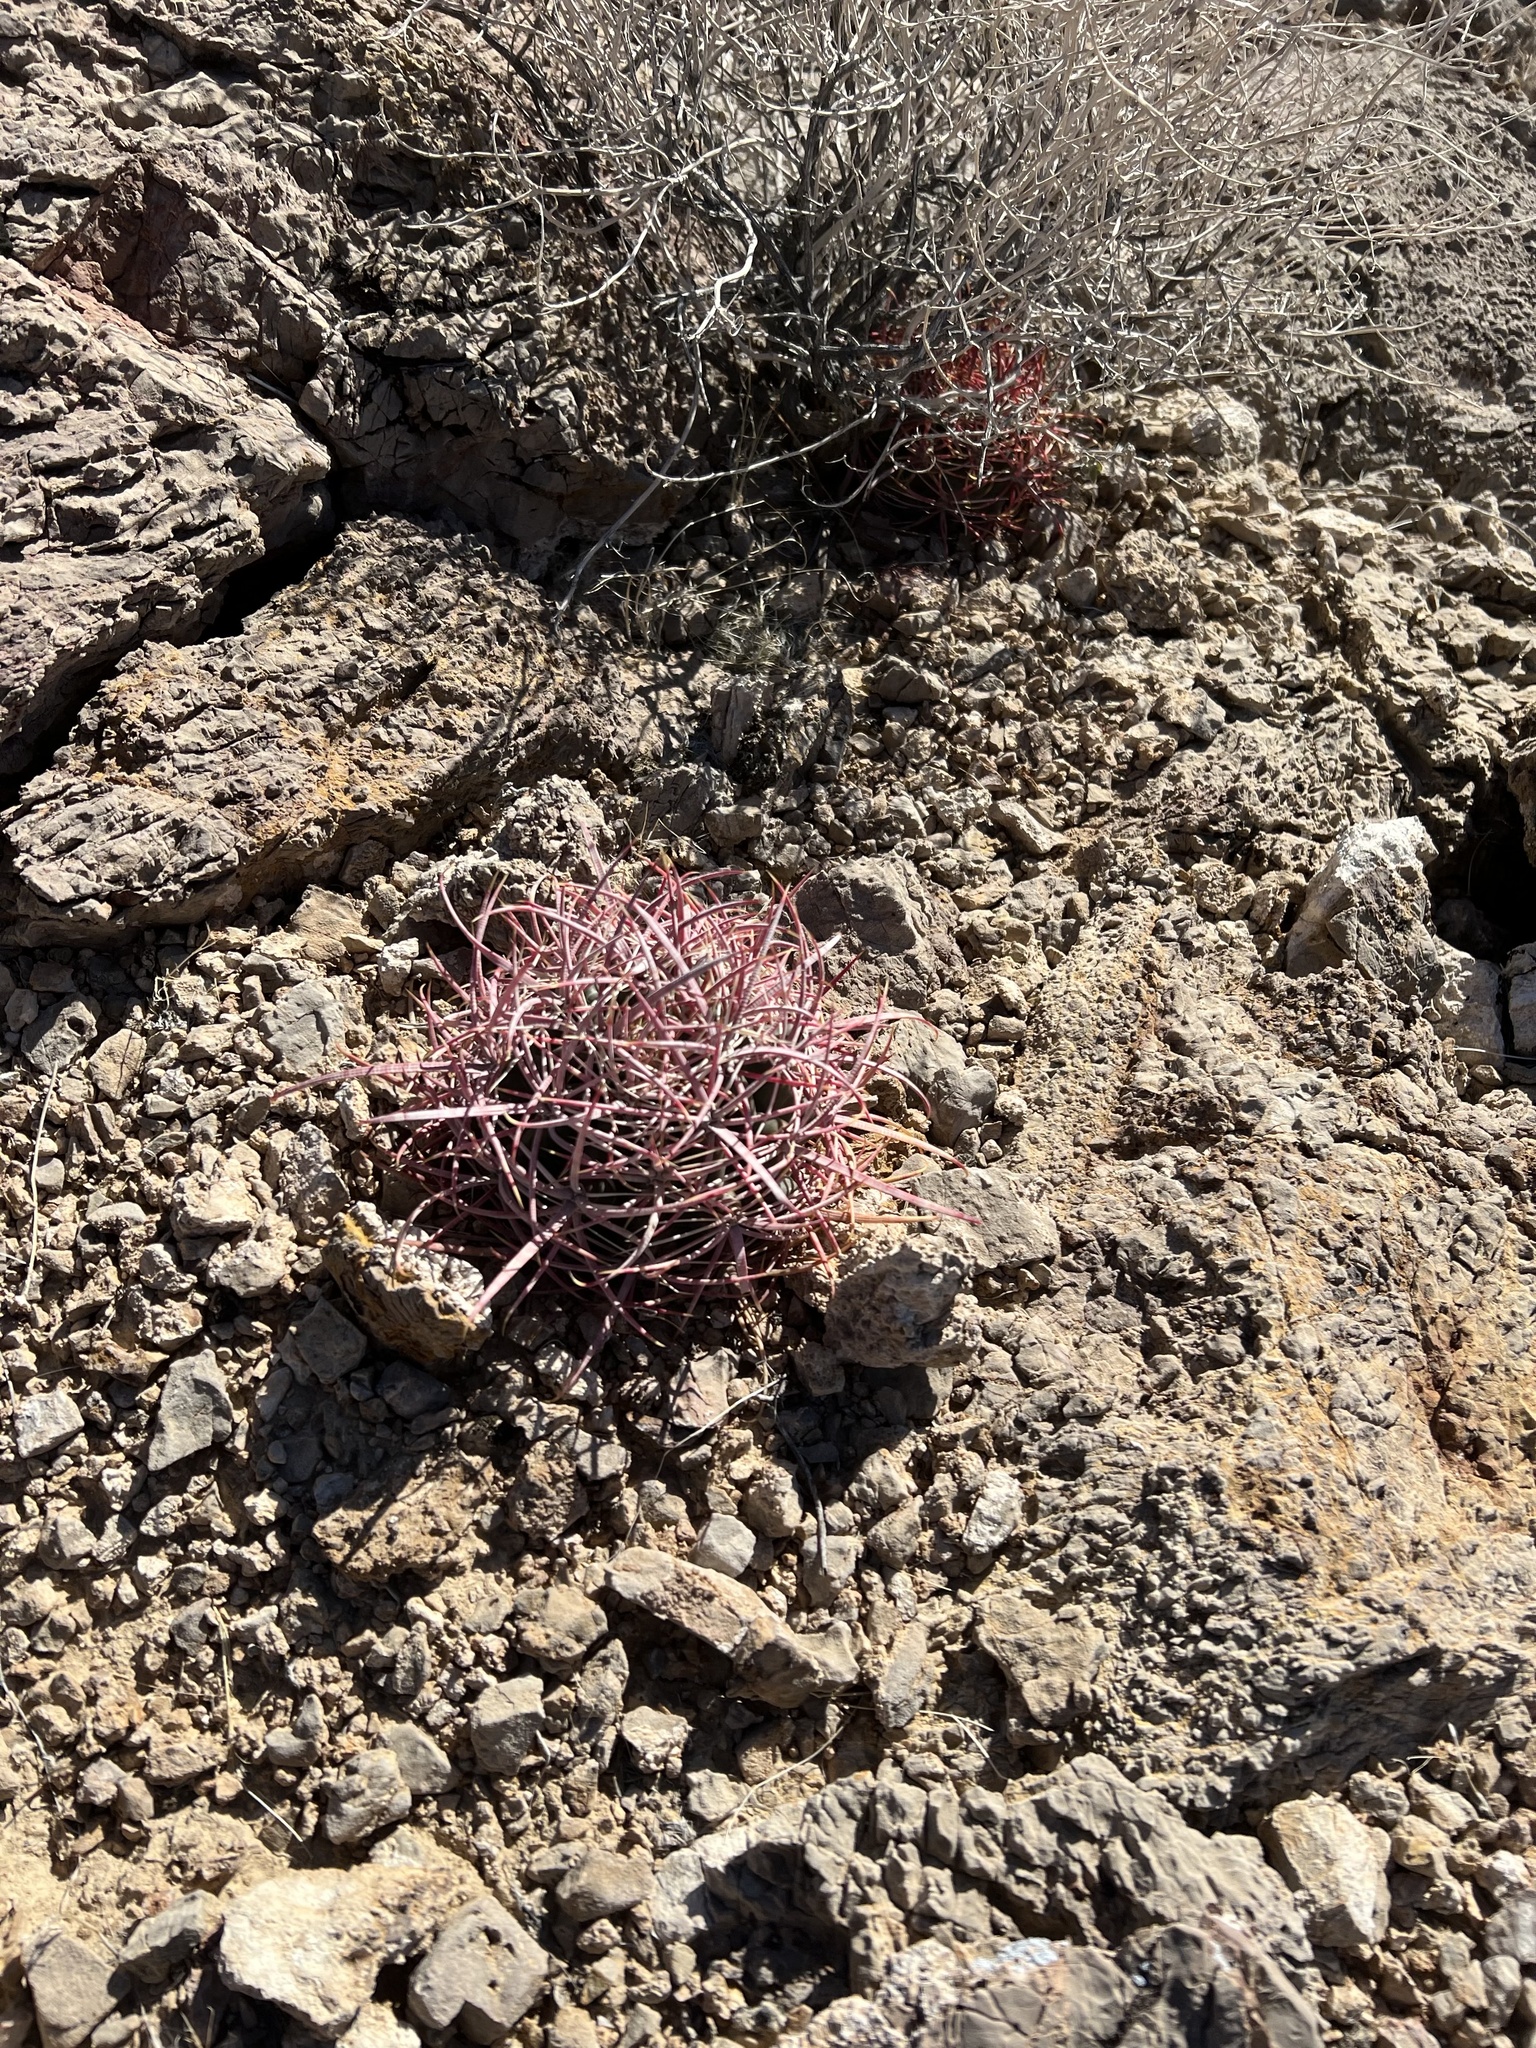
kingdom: Plantae
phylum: Tracheophyta
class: Magnoliopsida
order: Caryophyllales
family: Cactaceae
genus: Ferocactus
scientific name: Ferocactus cylindraceus
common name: California barrel cactus
